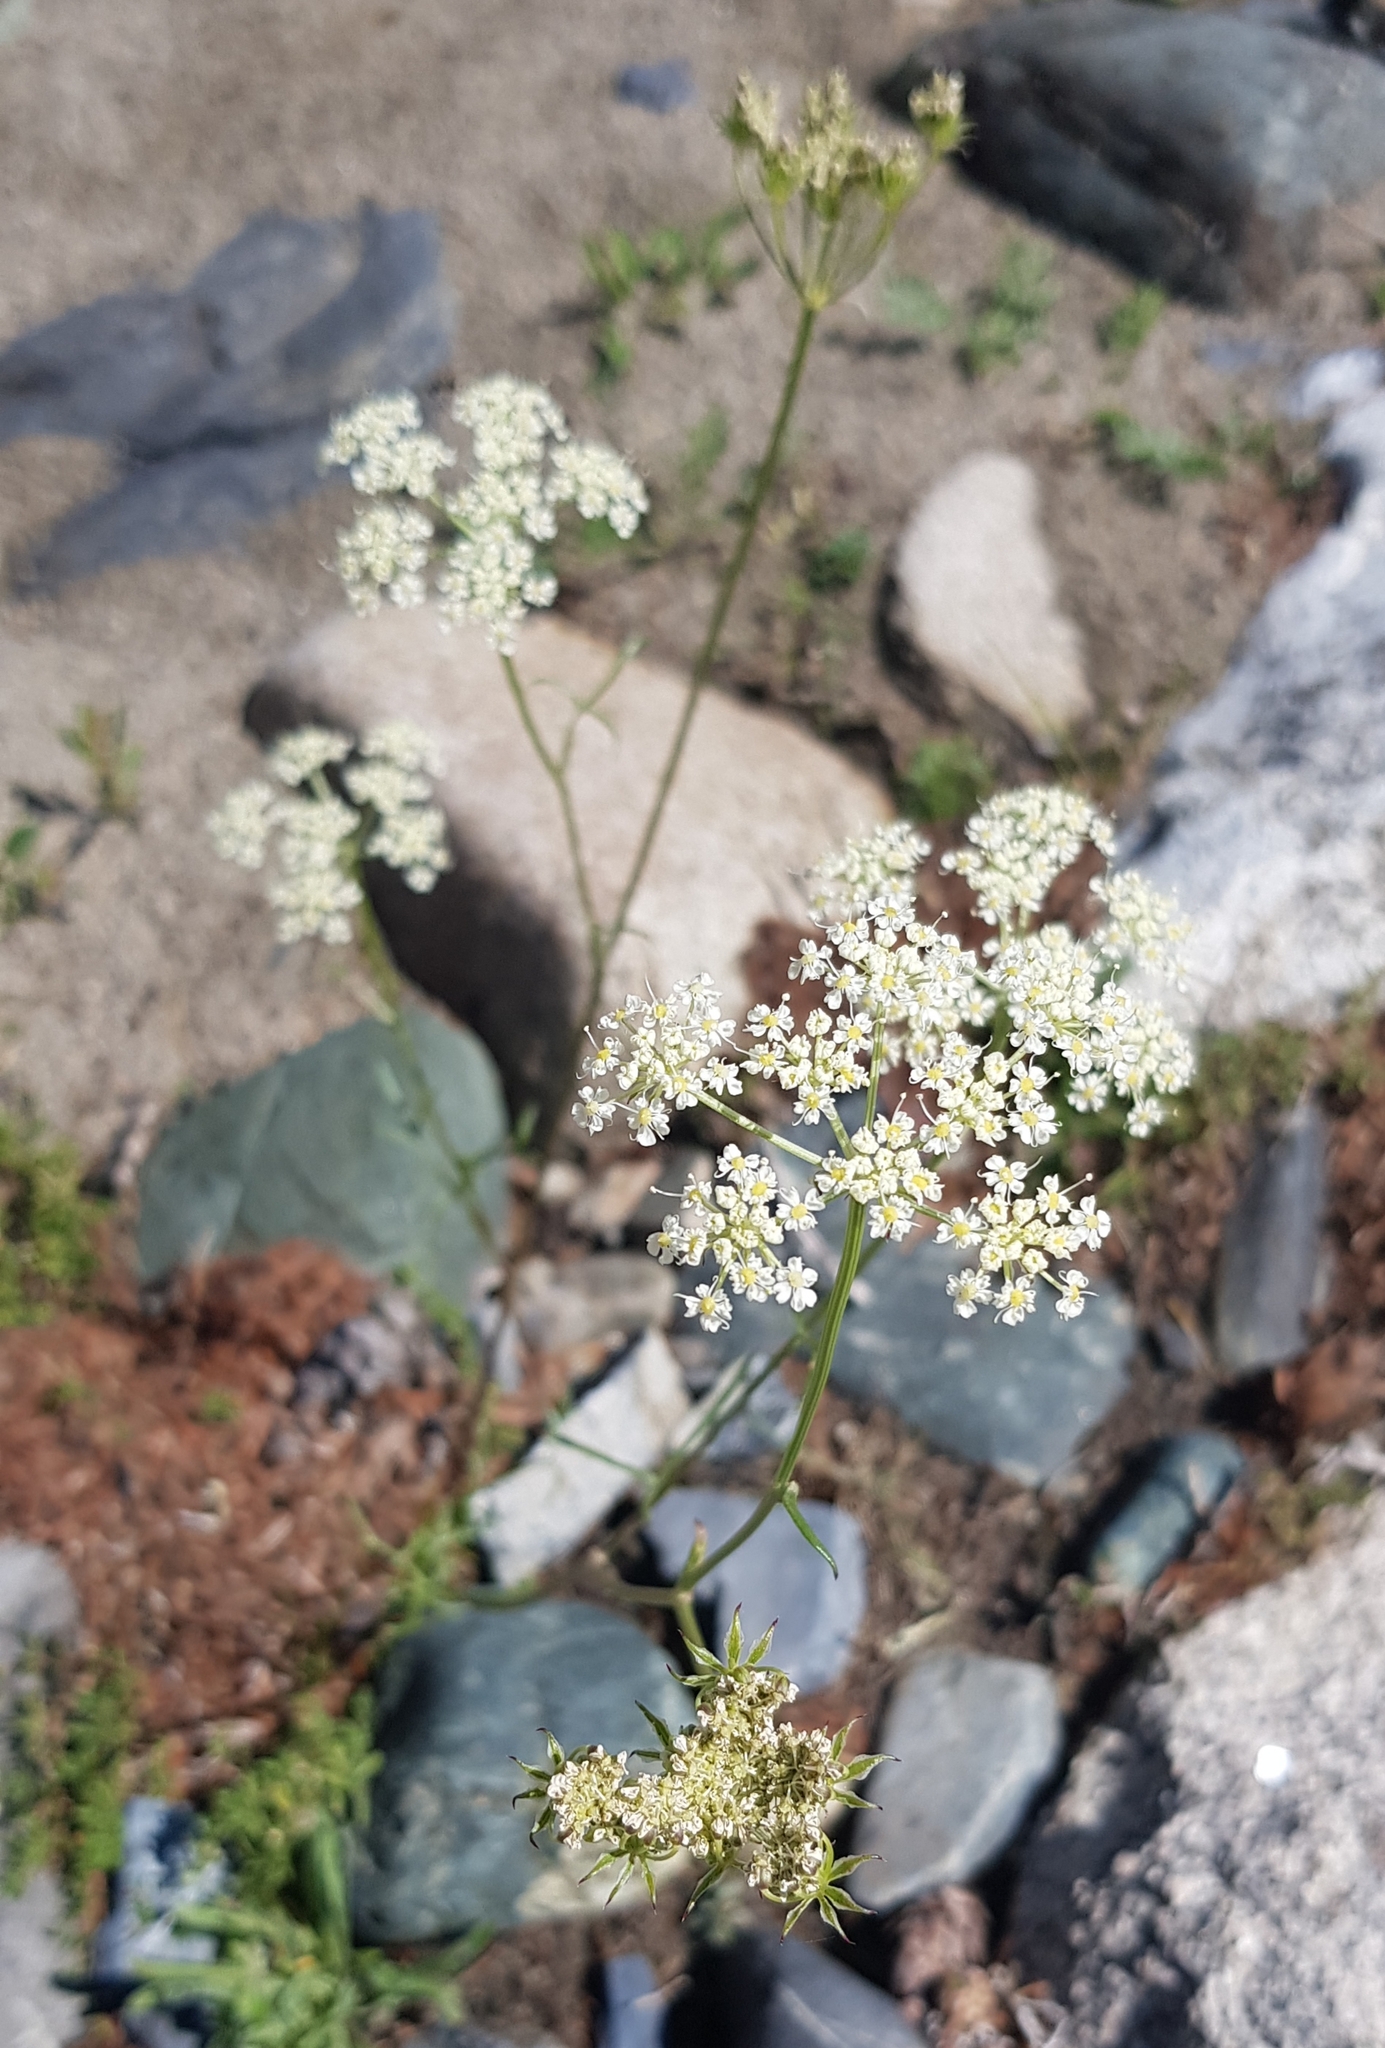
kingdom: Plantae
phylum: Tracheophyta
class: Magnoliopsida
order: Apiales
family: Apiaceae
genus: Kitagawia
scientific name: Kitagawia baicalensis
